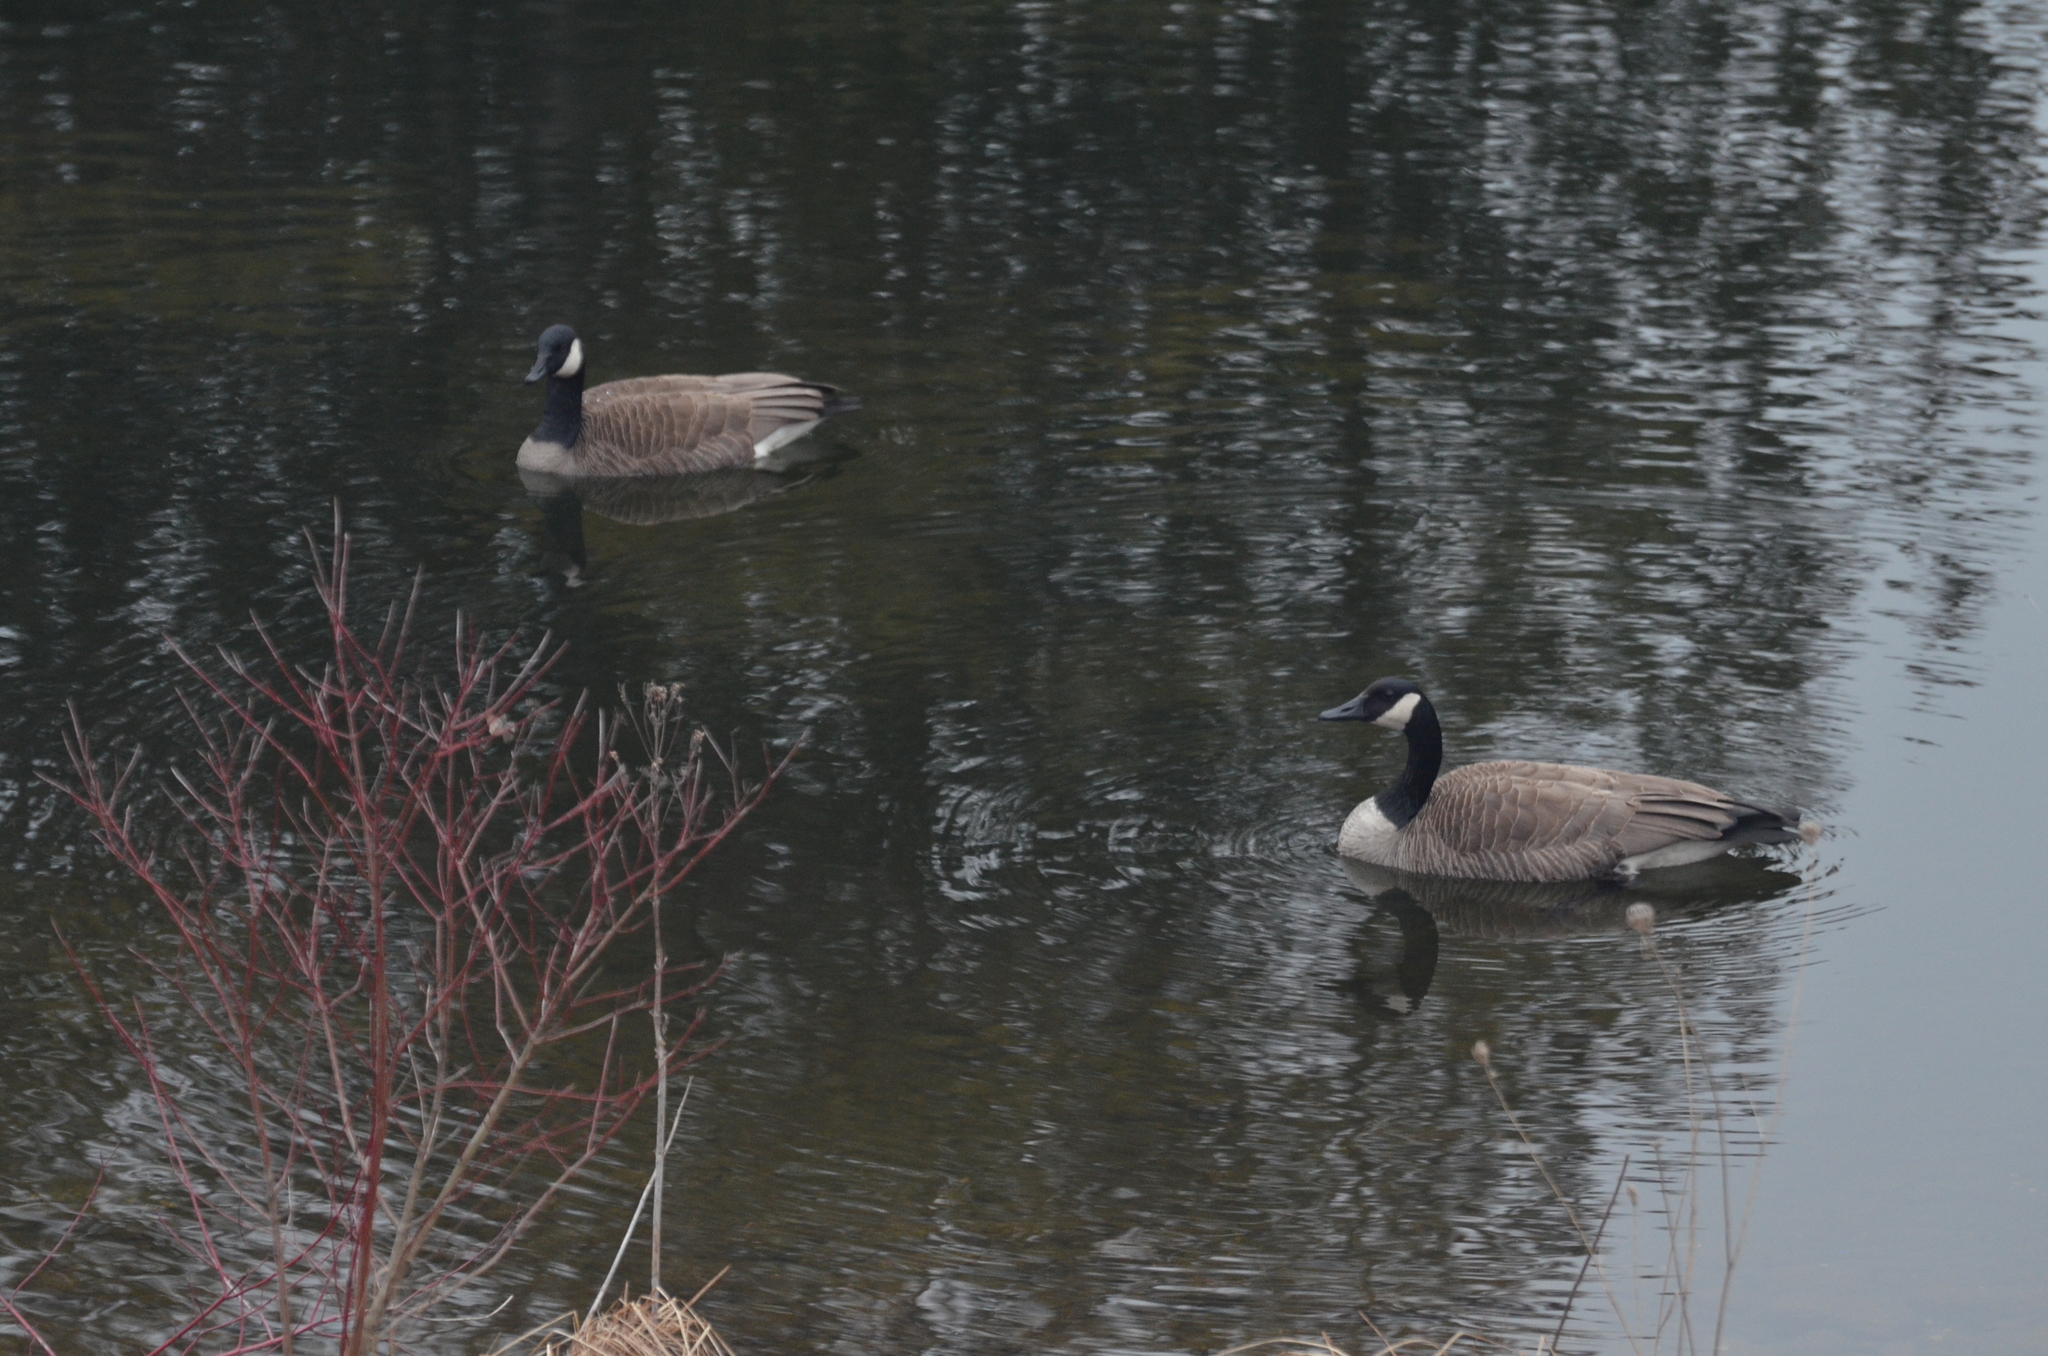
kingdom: Animalia
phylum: Chordata
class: Aves
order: Anseriformes
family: Anatidae
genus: Branta
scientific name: Branta canadensis
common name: Canada goose
